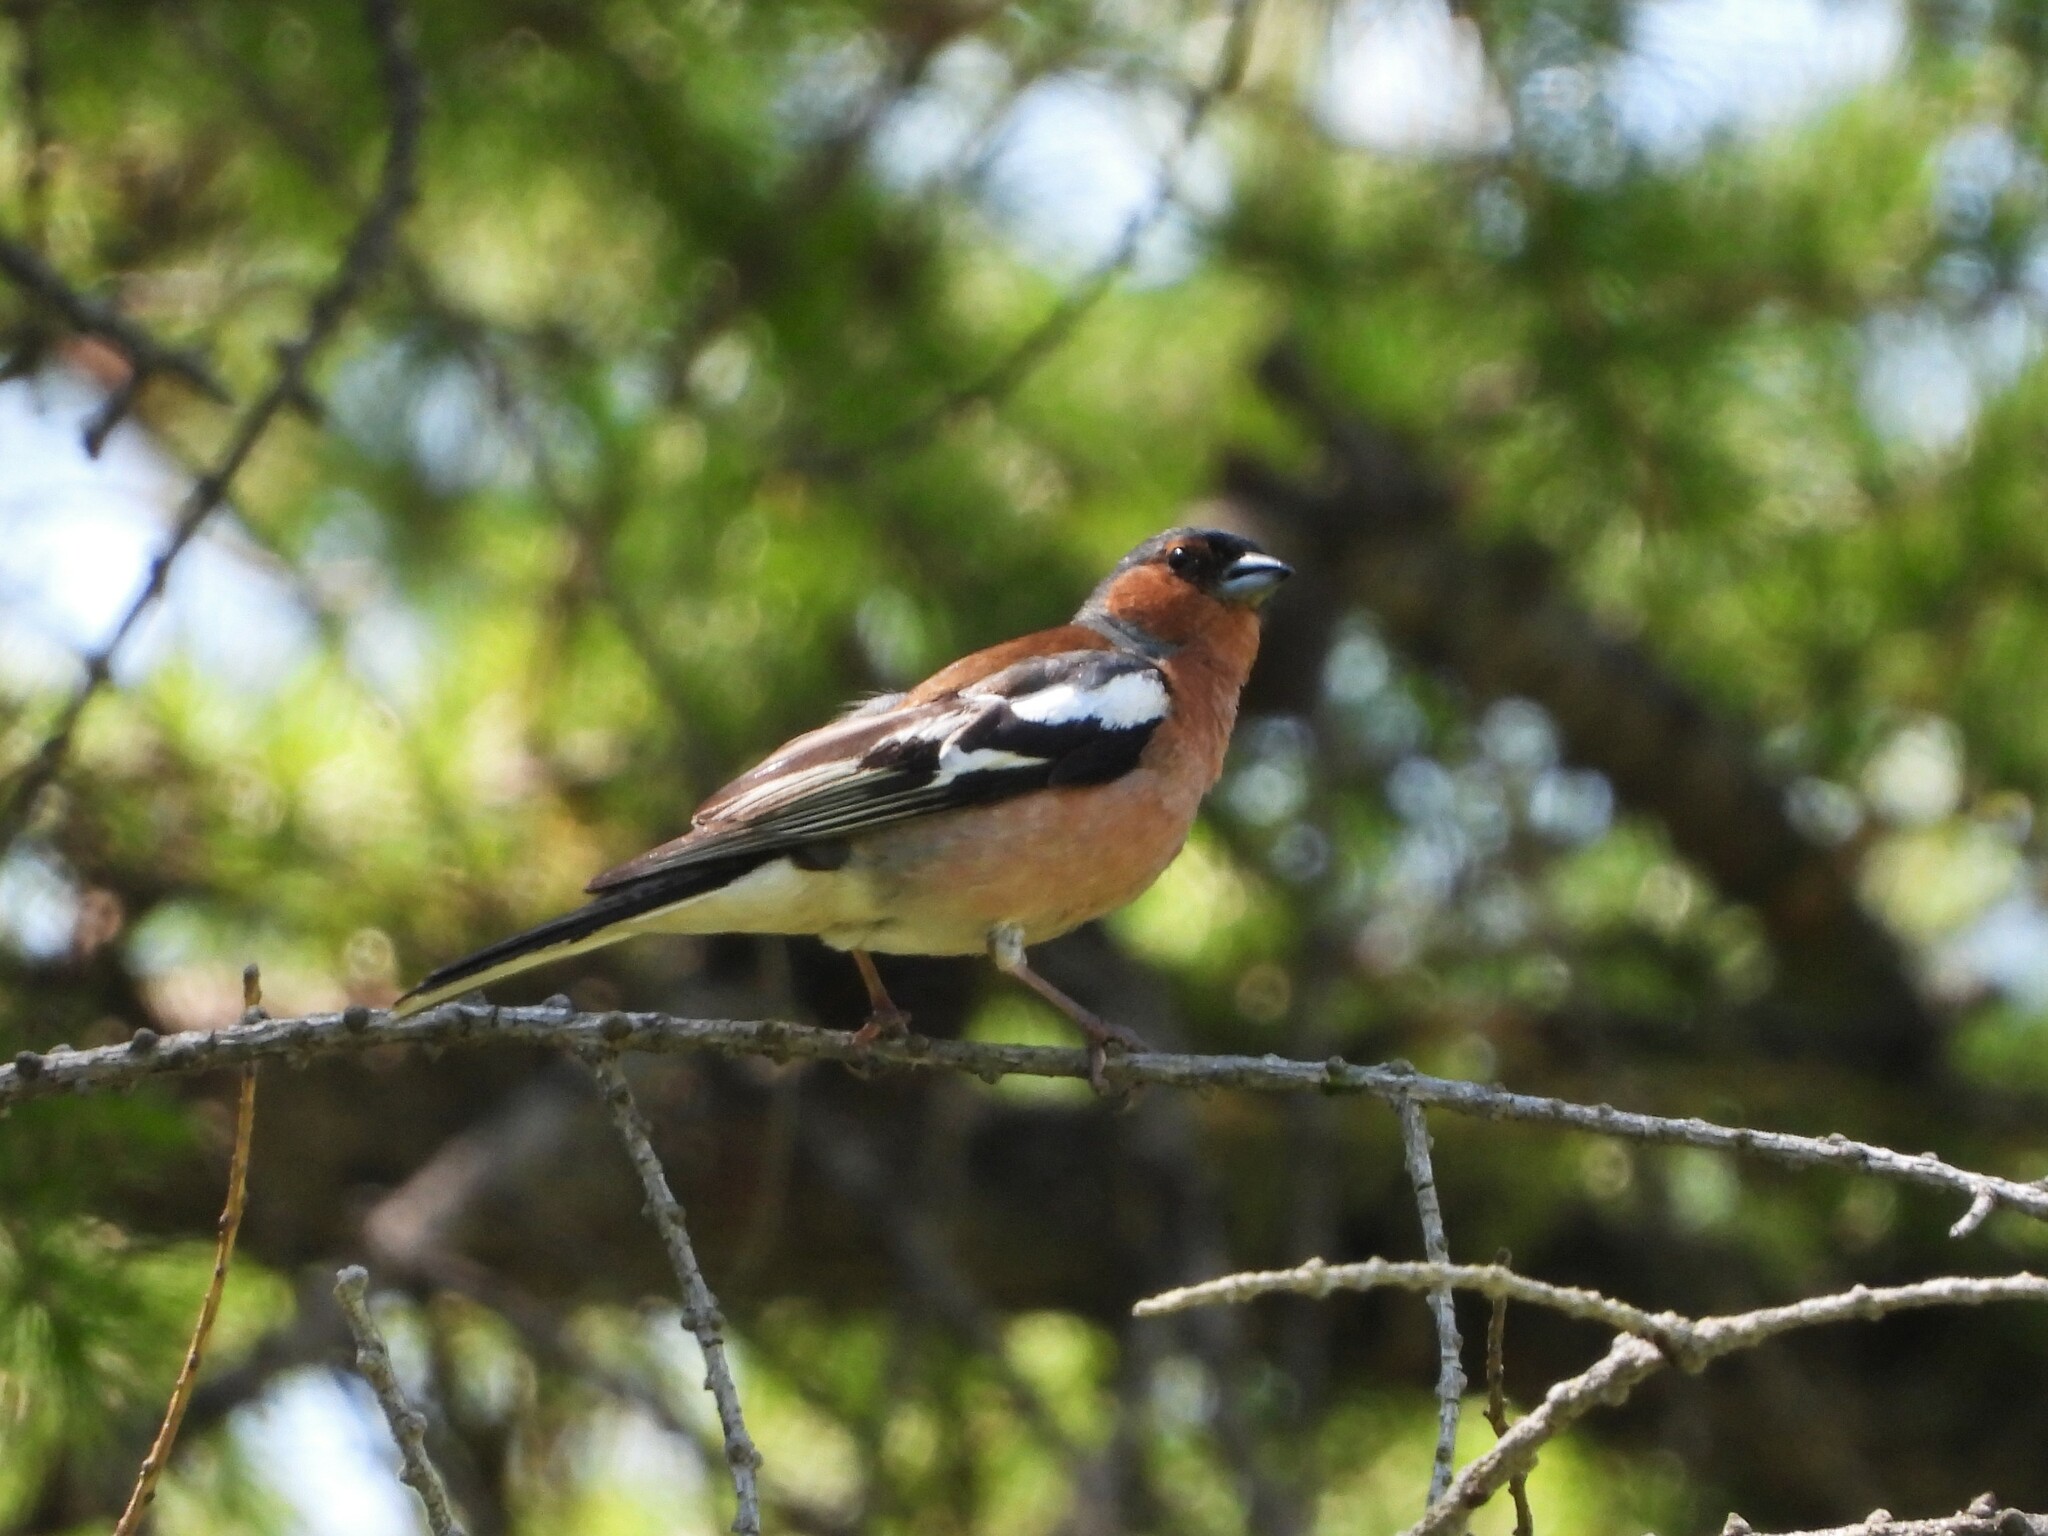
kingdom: Animalia
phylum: Chordata
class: Aves
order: Passeriformes
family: Fringillidae
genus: Fringilla
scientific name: Fringilla coelebs
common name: Common chaffinch
